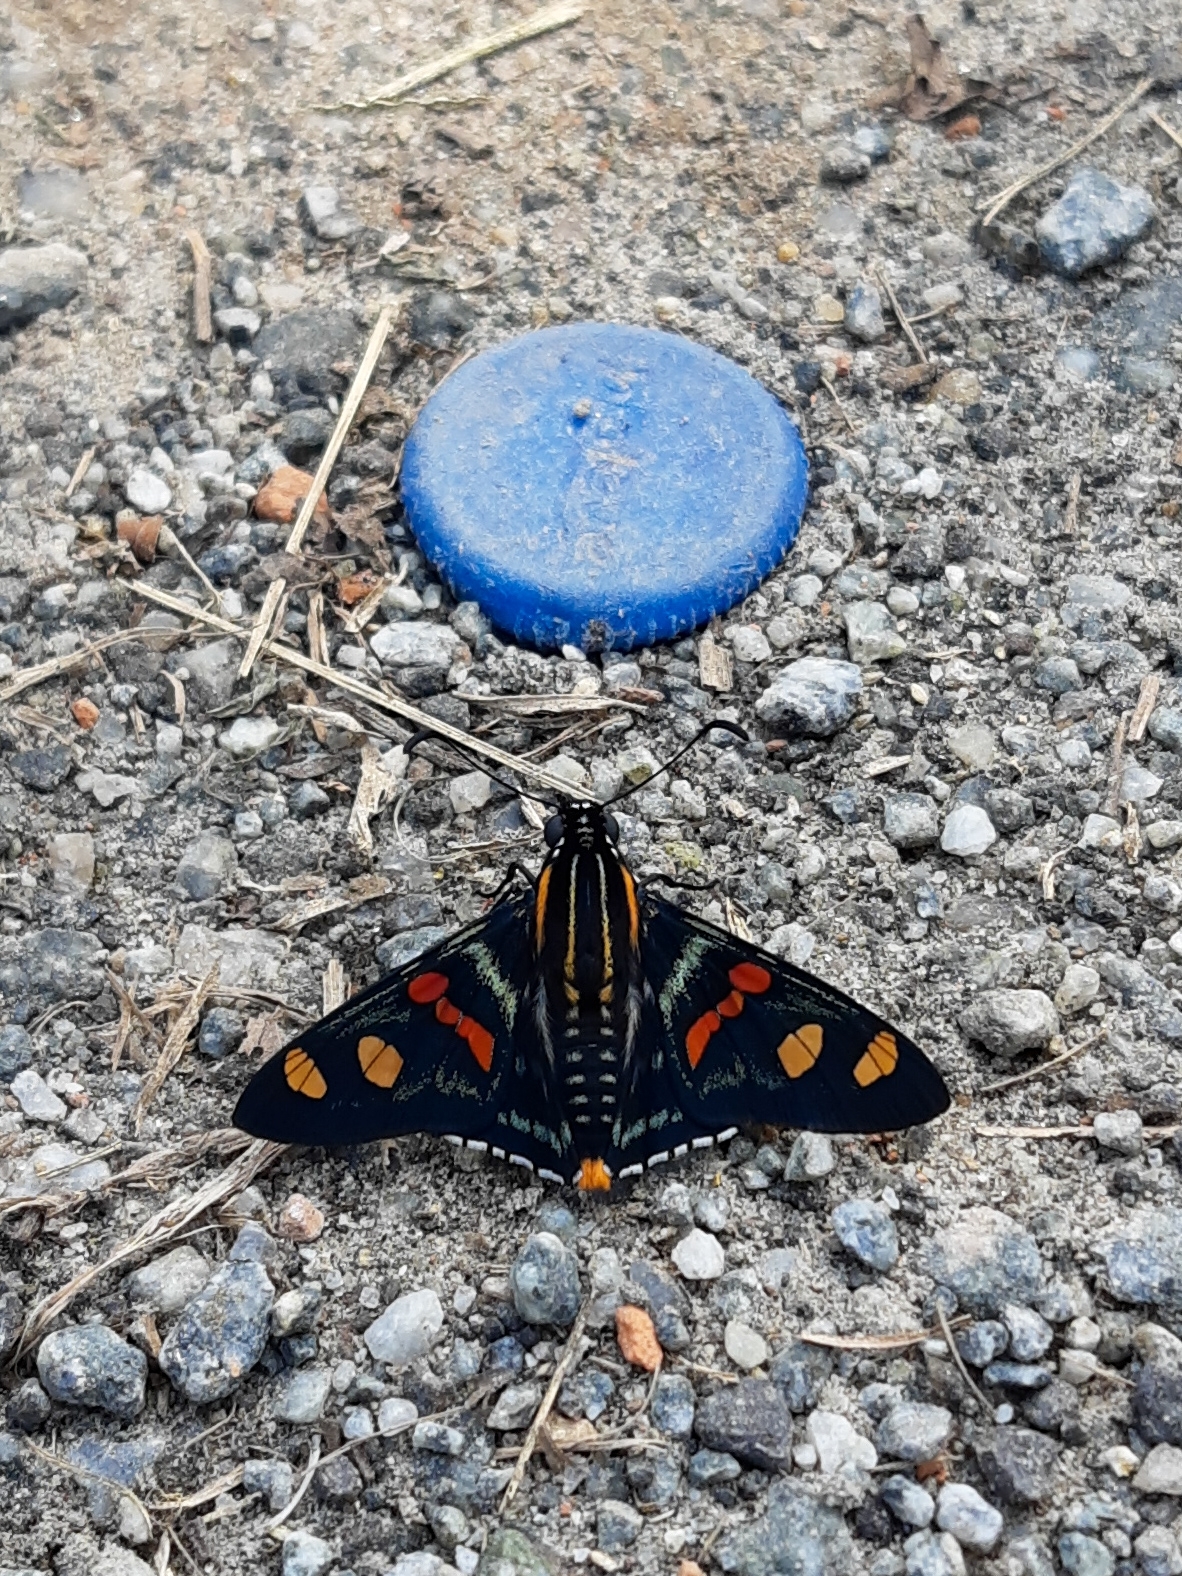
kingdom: Animalia
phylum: Arthropoda
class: Insecta
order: Lepidoptera
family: Hesperiidae
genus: Mimoniades
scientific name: Mimoniades versicolor
